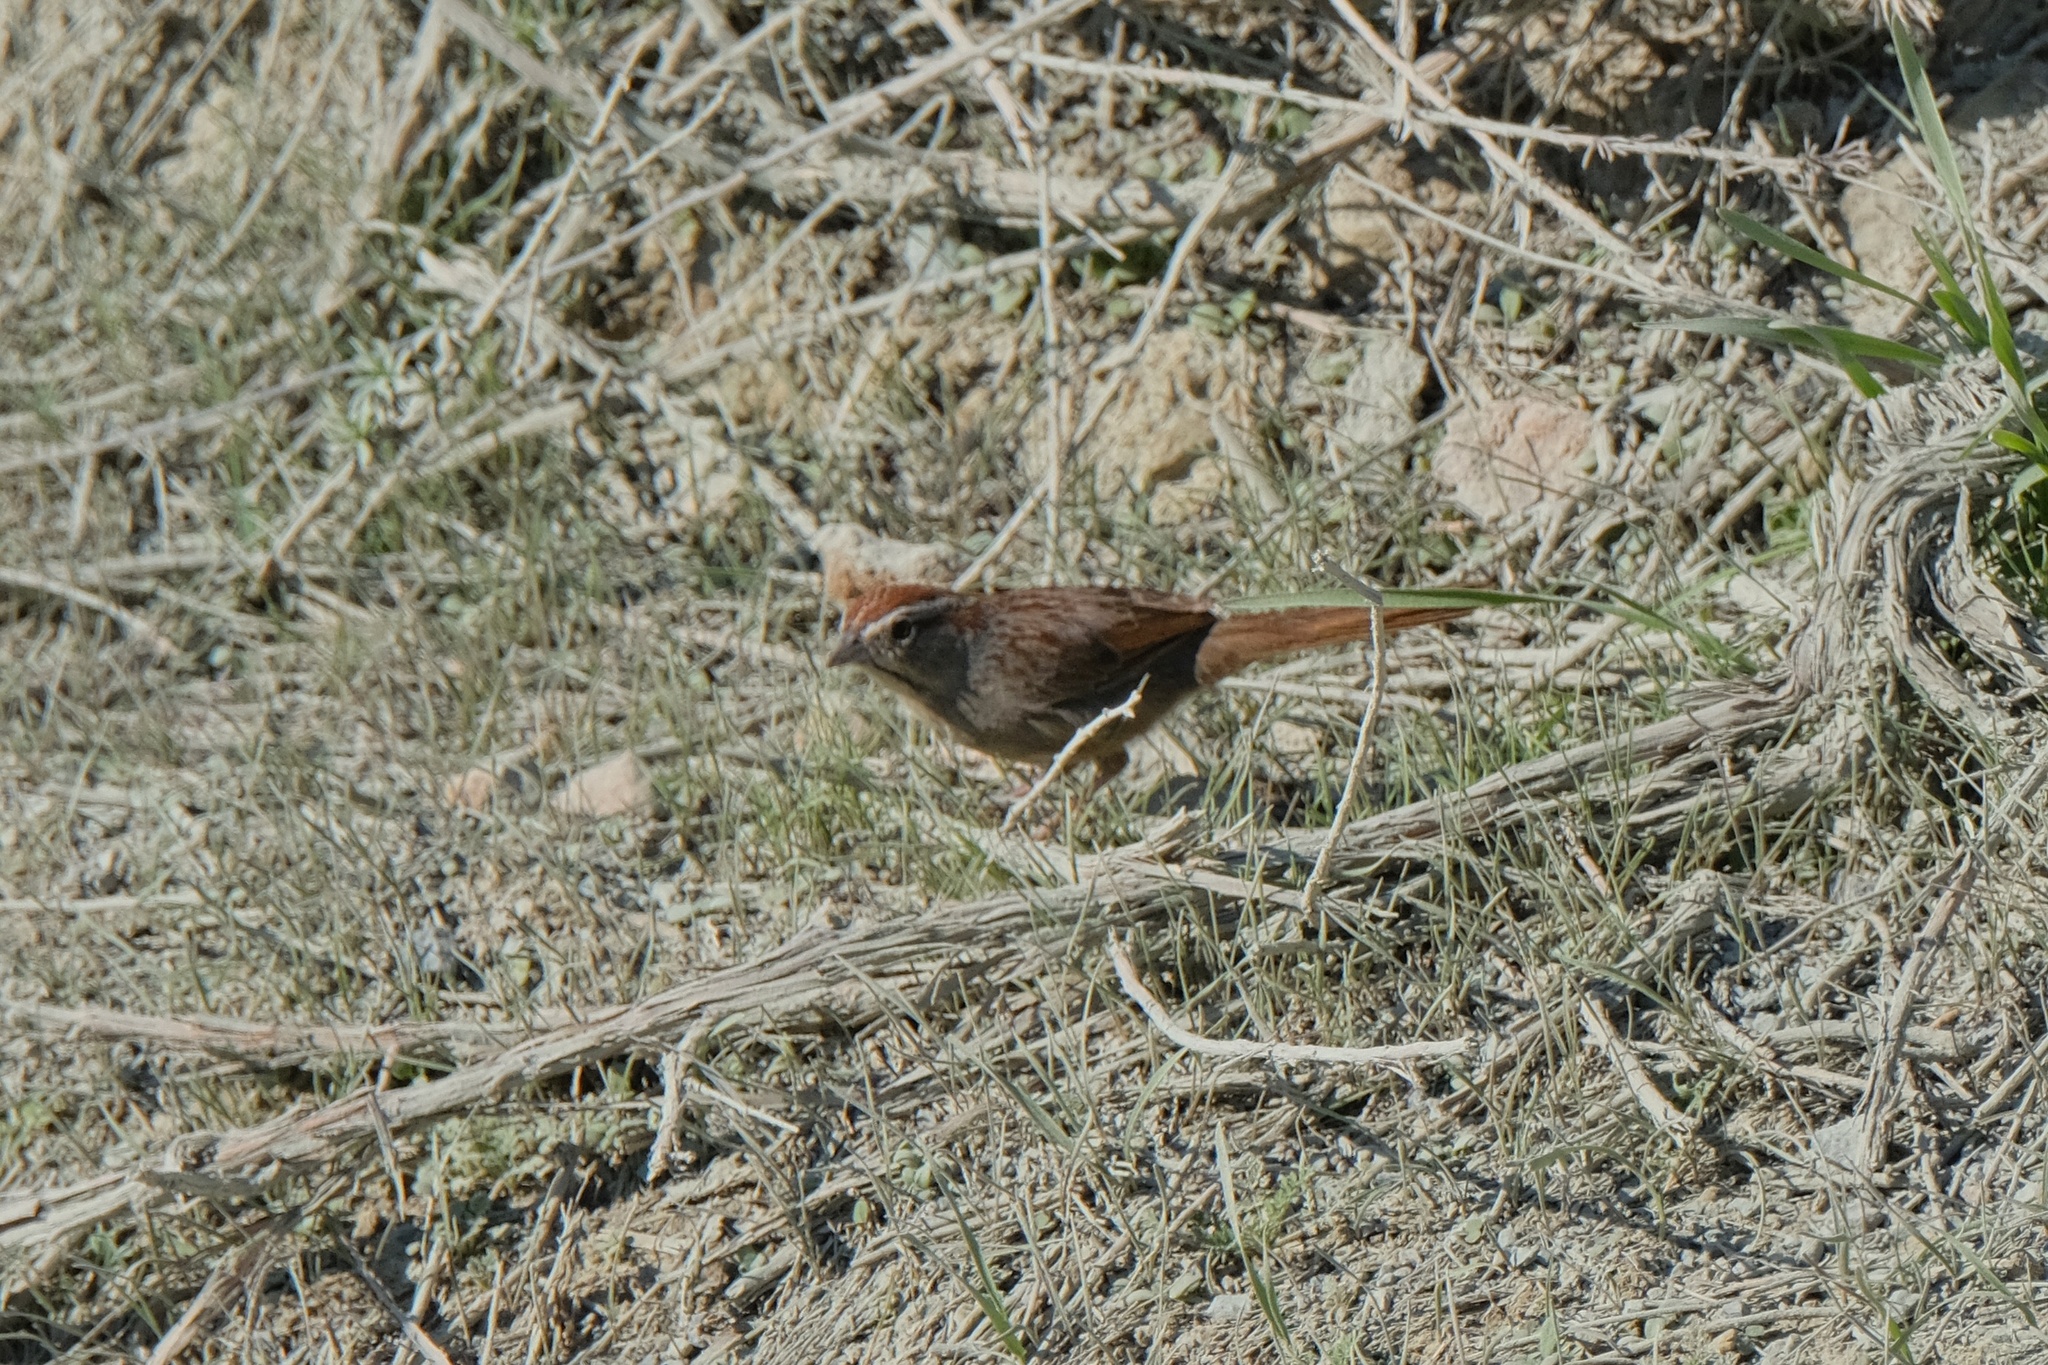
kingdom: Animalia
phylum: Chordata
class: Aves
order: Passeriformes
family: Passerellidae
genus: Aimophila
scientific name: Aimophila ruficeps
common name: Rufous-crowned sparrow
